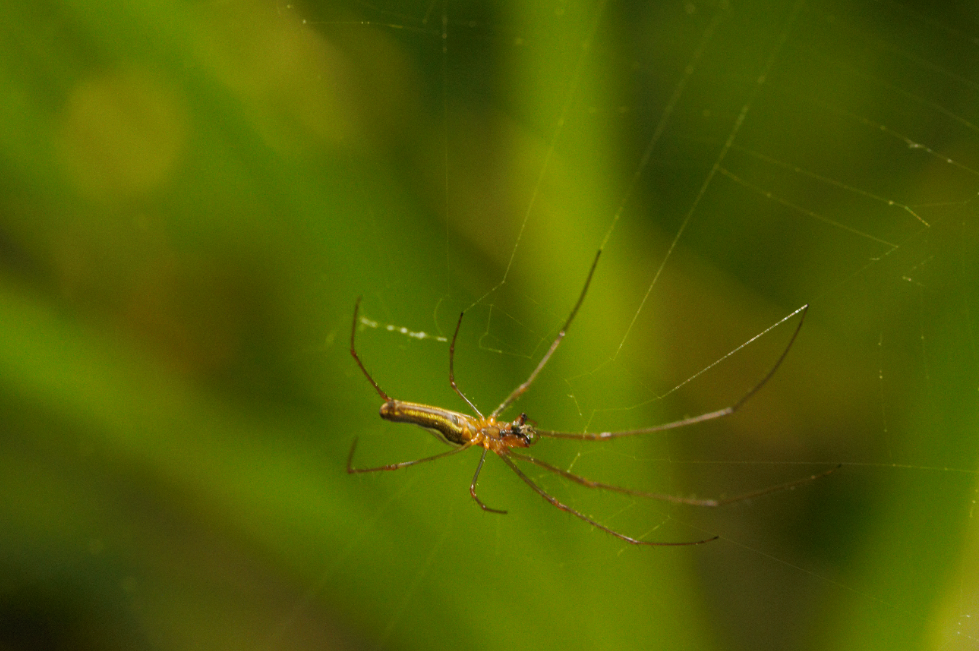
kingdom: Animalia
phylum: Arthropoda
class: Arachnida
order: Araneae
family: Tetragnathidae
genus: Tetragnatha
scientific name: Tetragnatha
